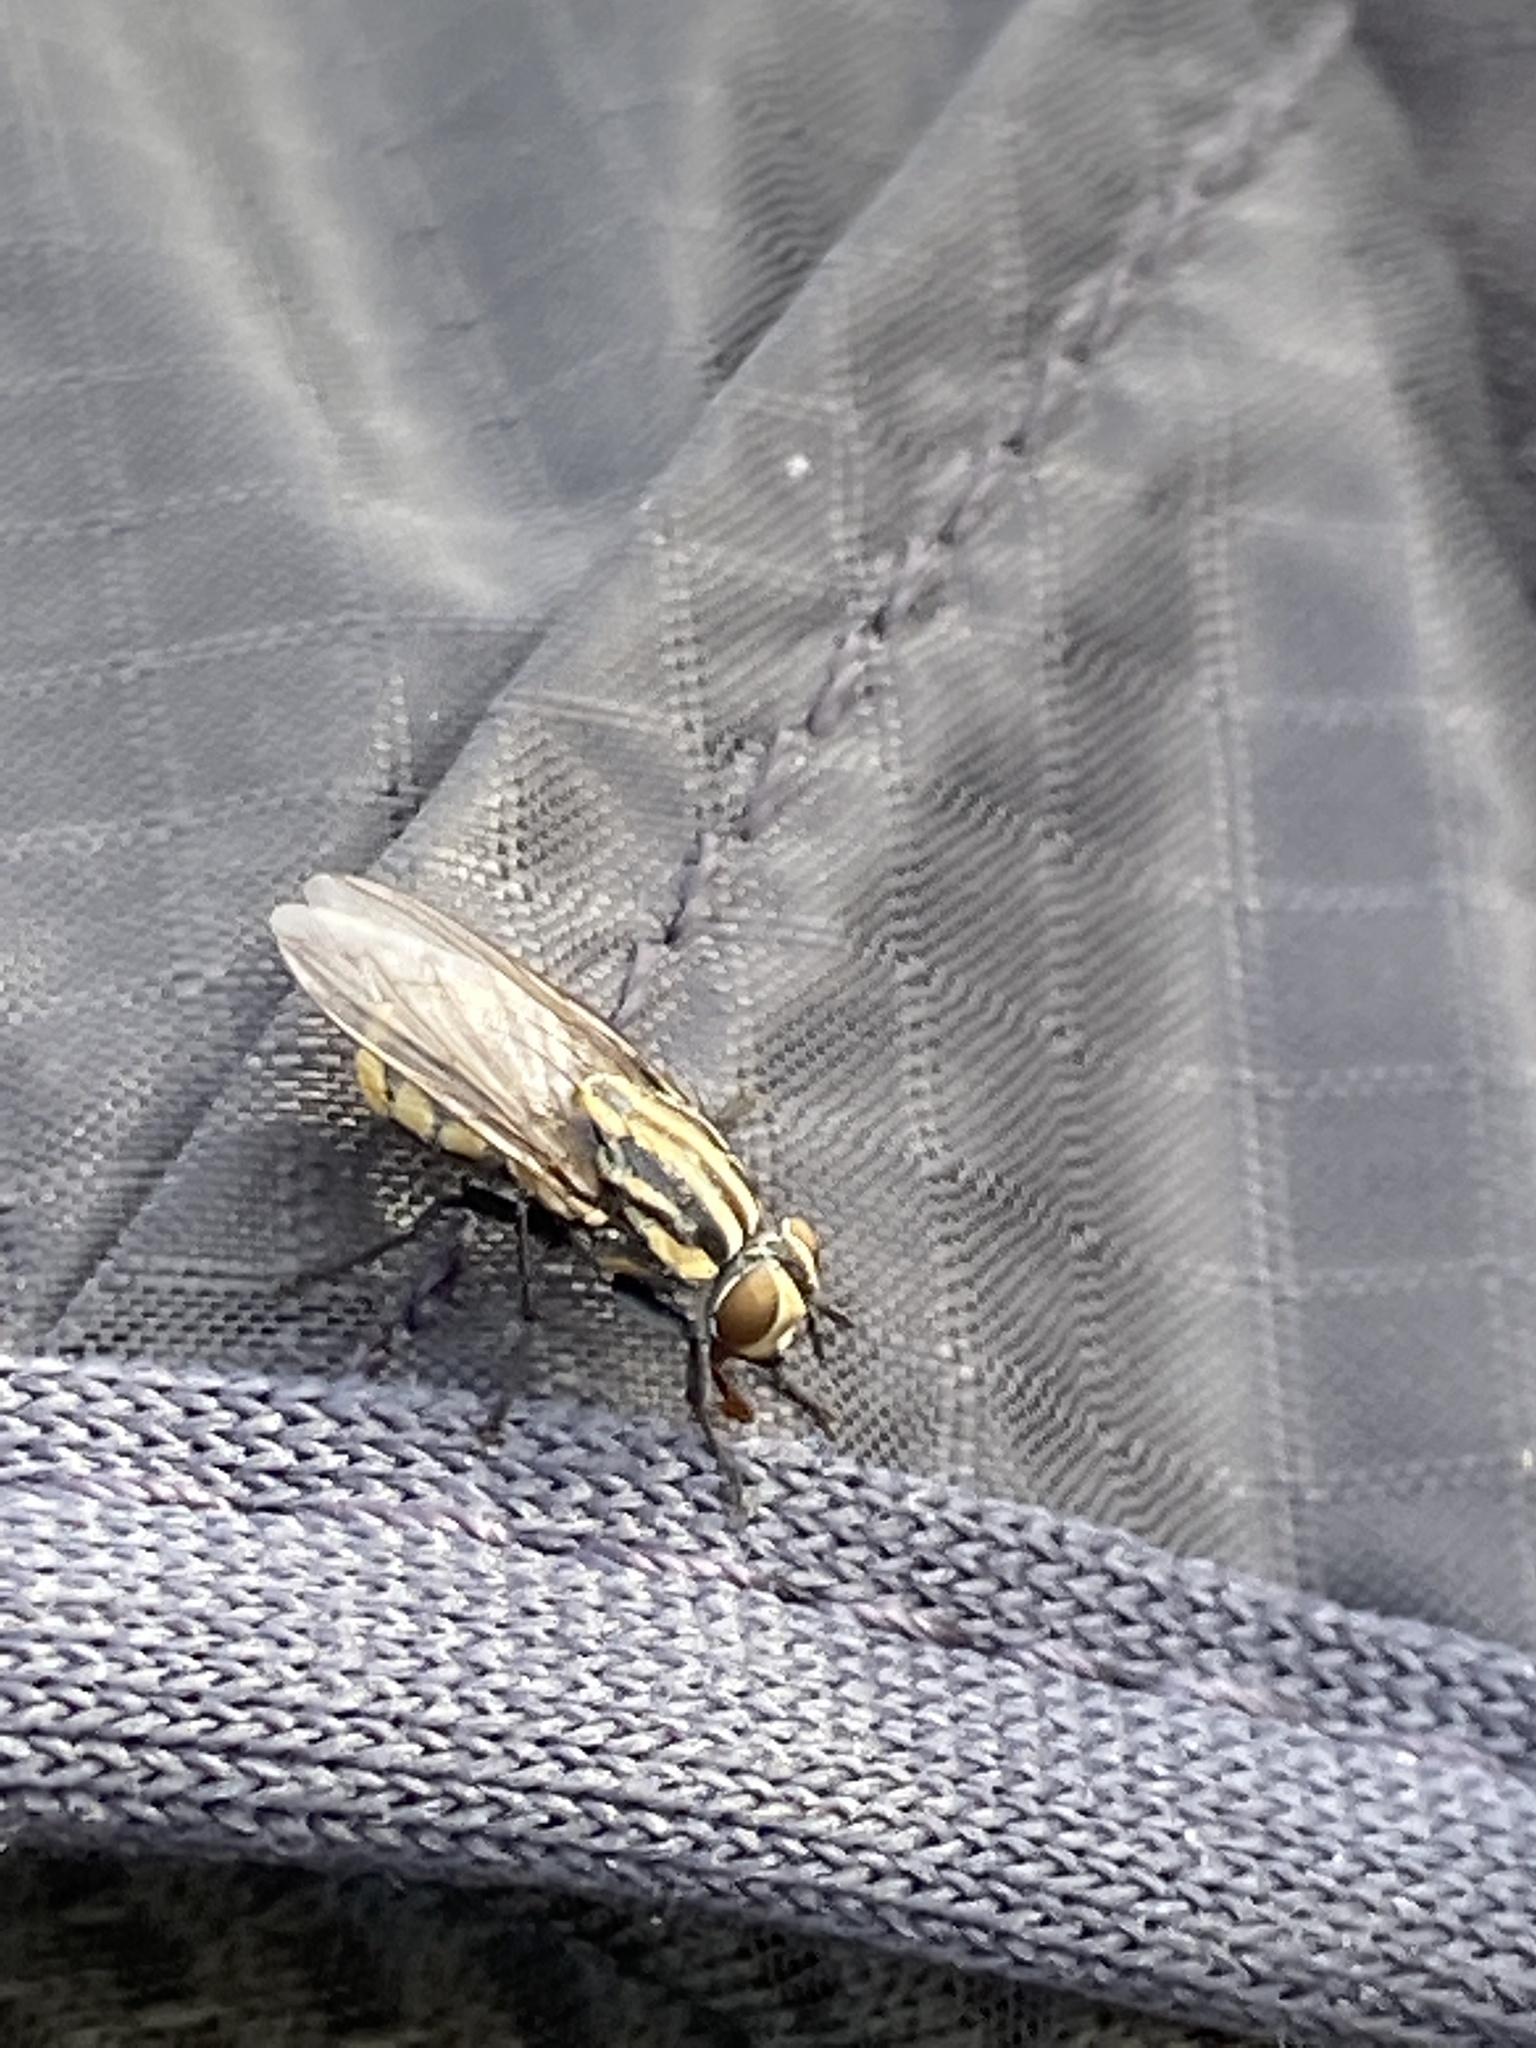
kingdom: Animalia
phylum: Arthropoda
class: Insecta
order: Diptera
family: Sarcophagidae
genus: Oxysarcodexia
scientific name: Oxysarcodexia varia
